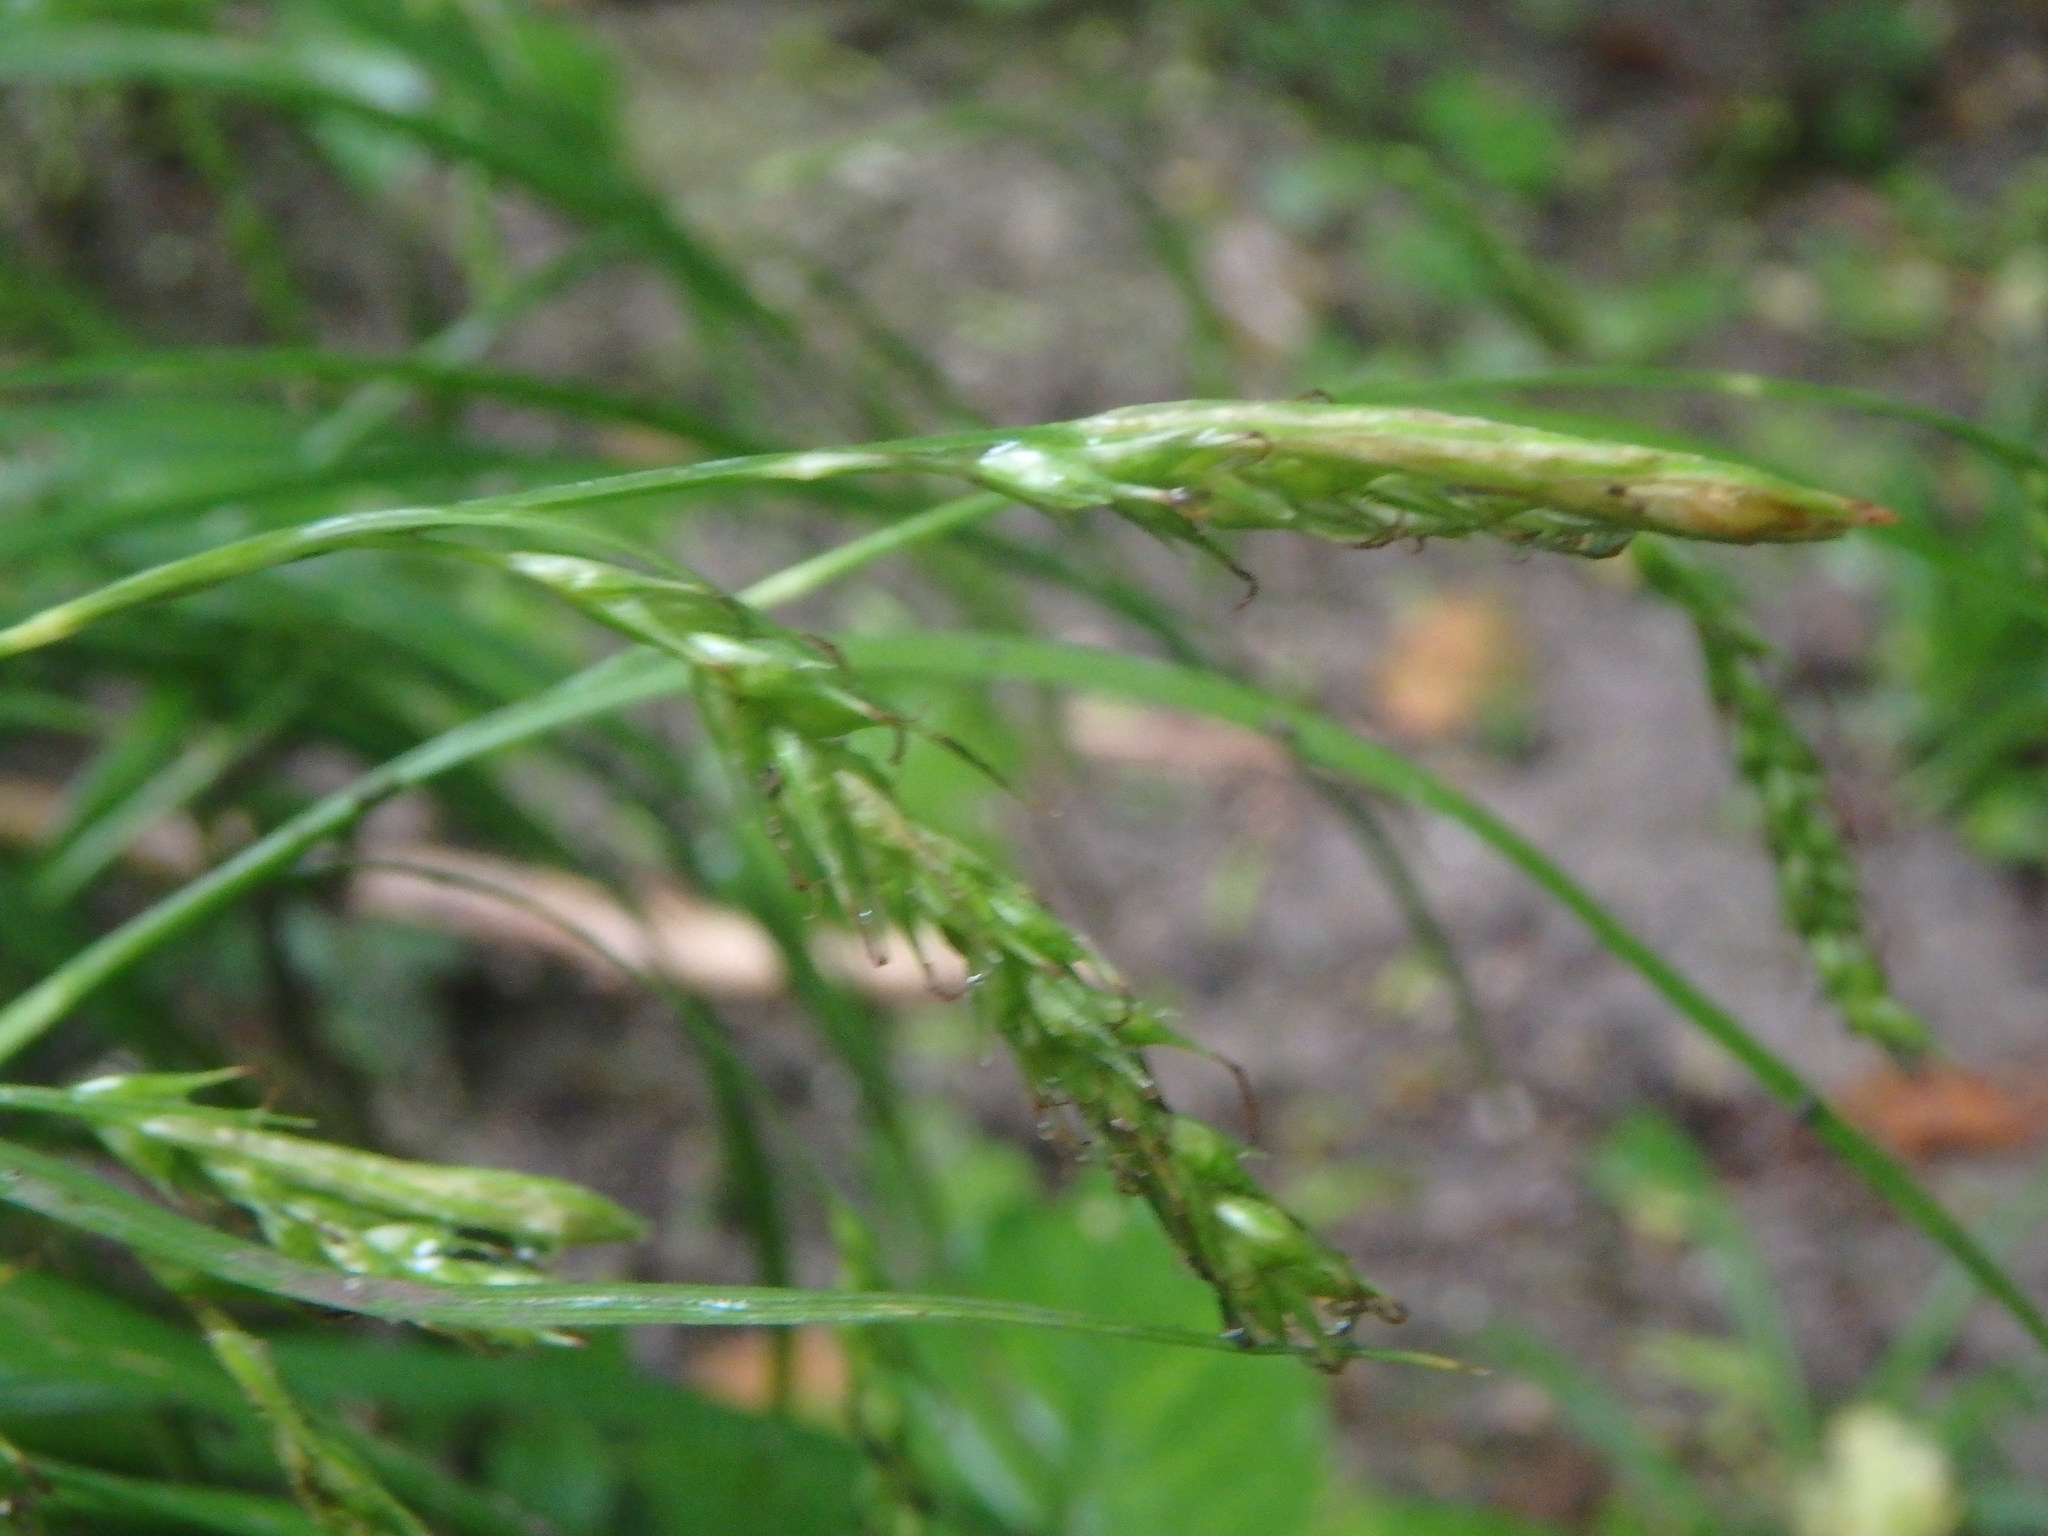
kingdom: Plantae
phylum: Tracheophyta
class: Liliopsida
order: Poales
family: Cyperaceae
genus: Carex
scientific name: Carex sylvatica
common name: Wood-sedge
